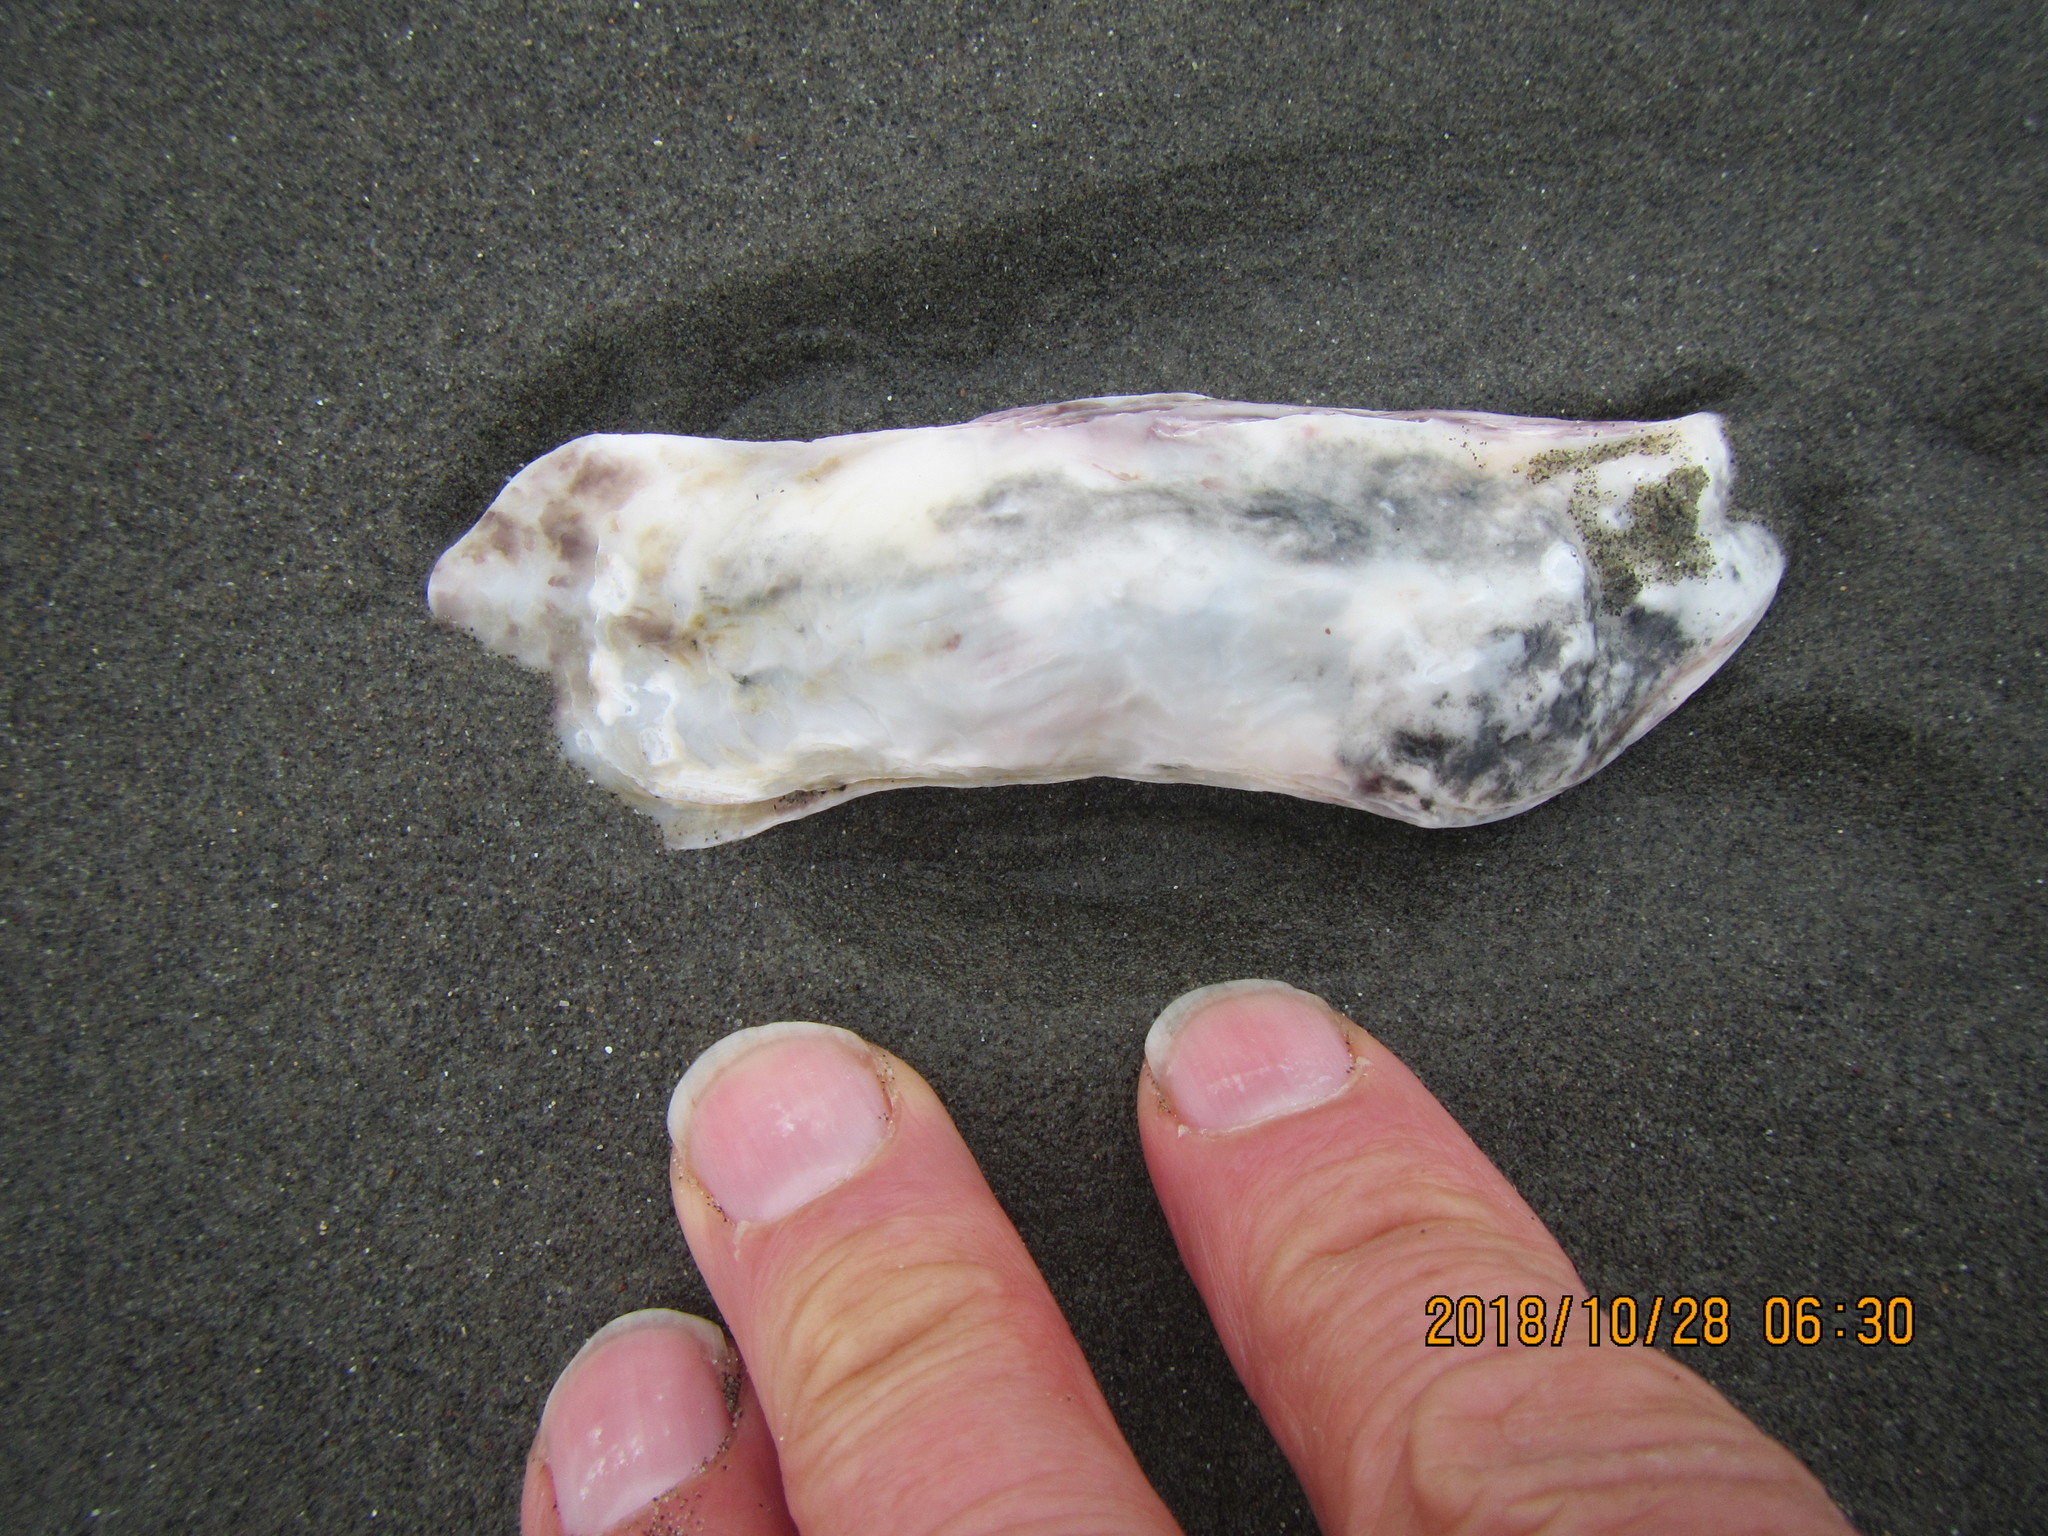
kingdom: Animalia
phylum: Mollusca
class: Bivalvia
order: Ostreida
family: Ostreidae
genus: Magallana
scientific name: Magallana gigas
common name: Pacific oyster
